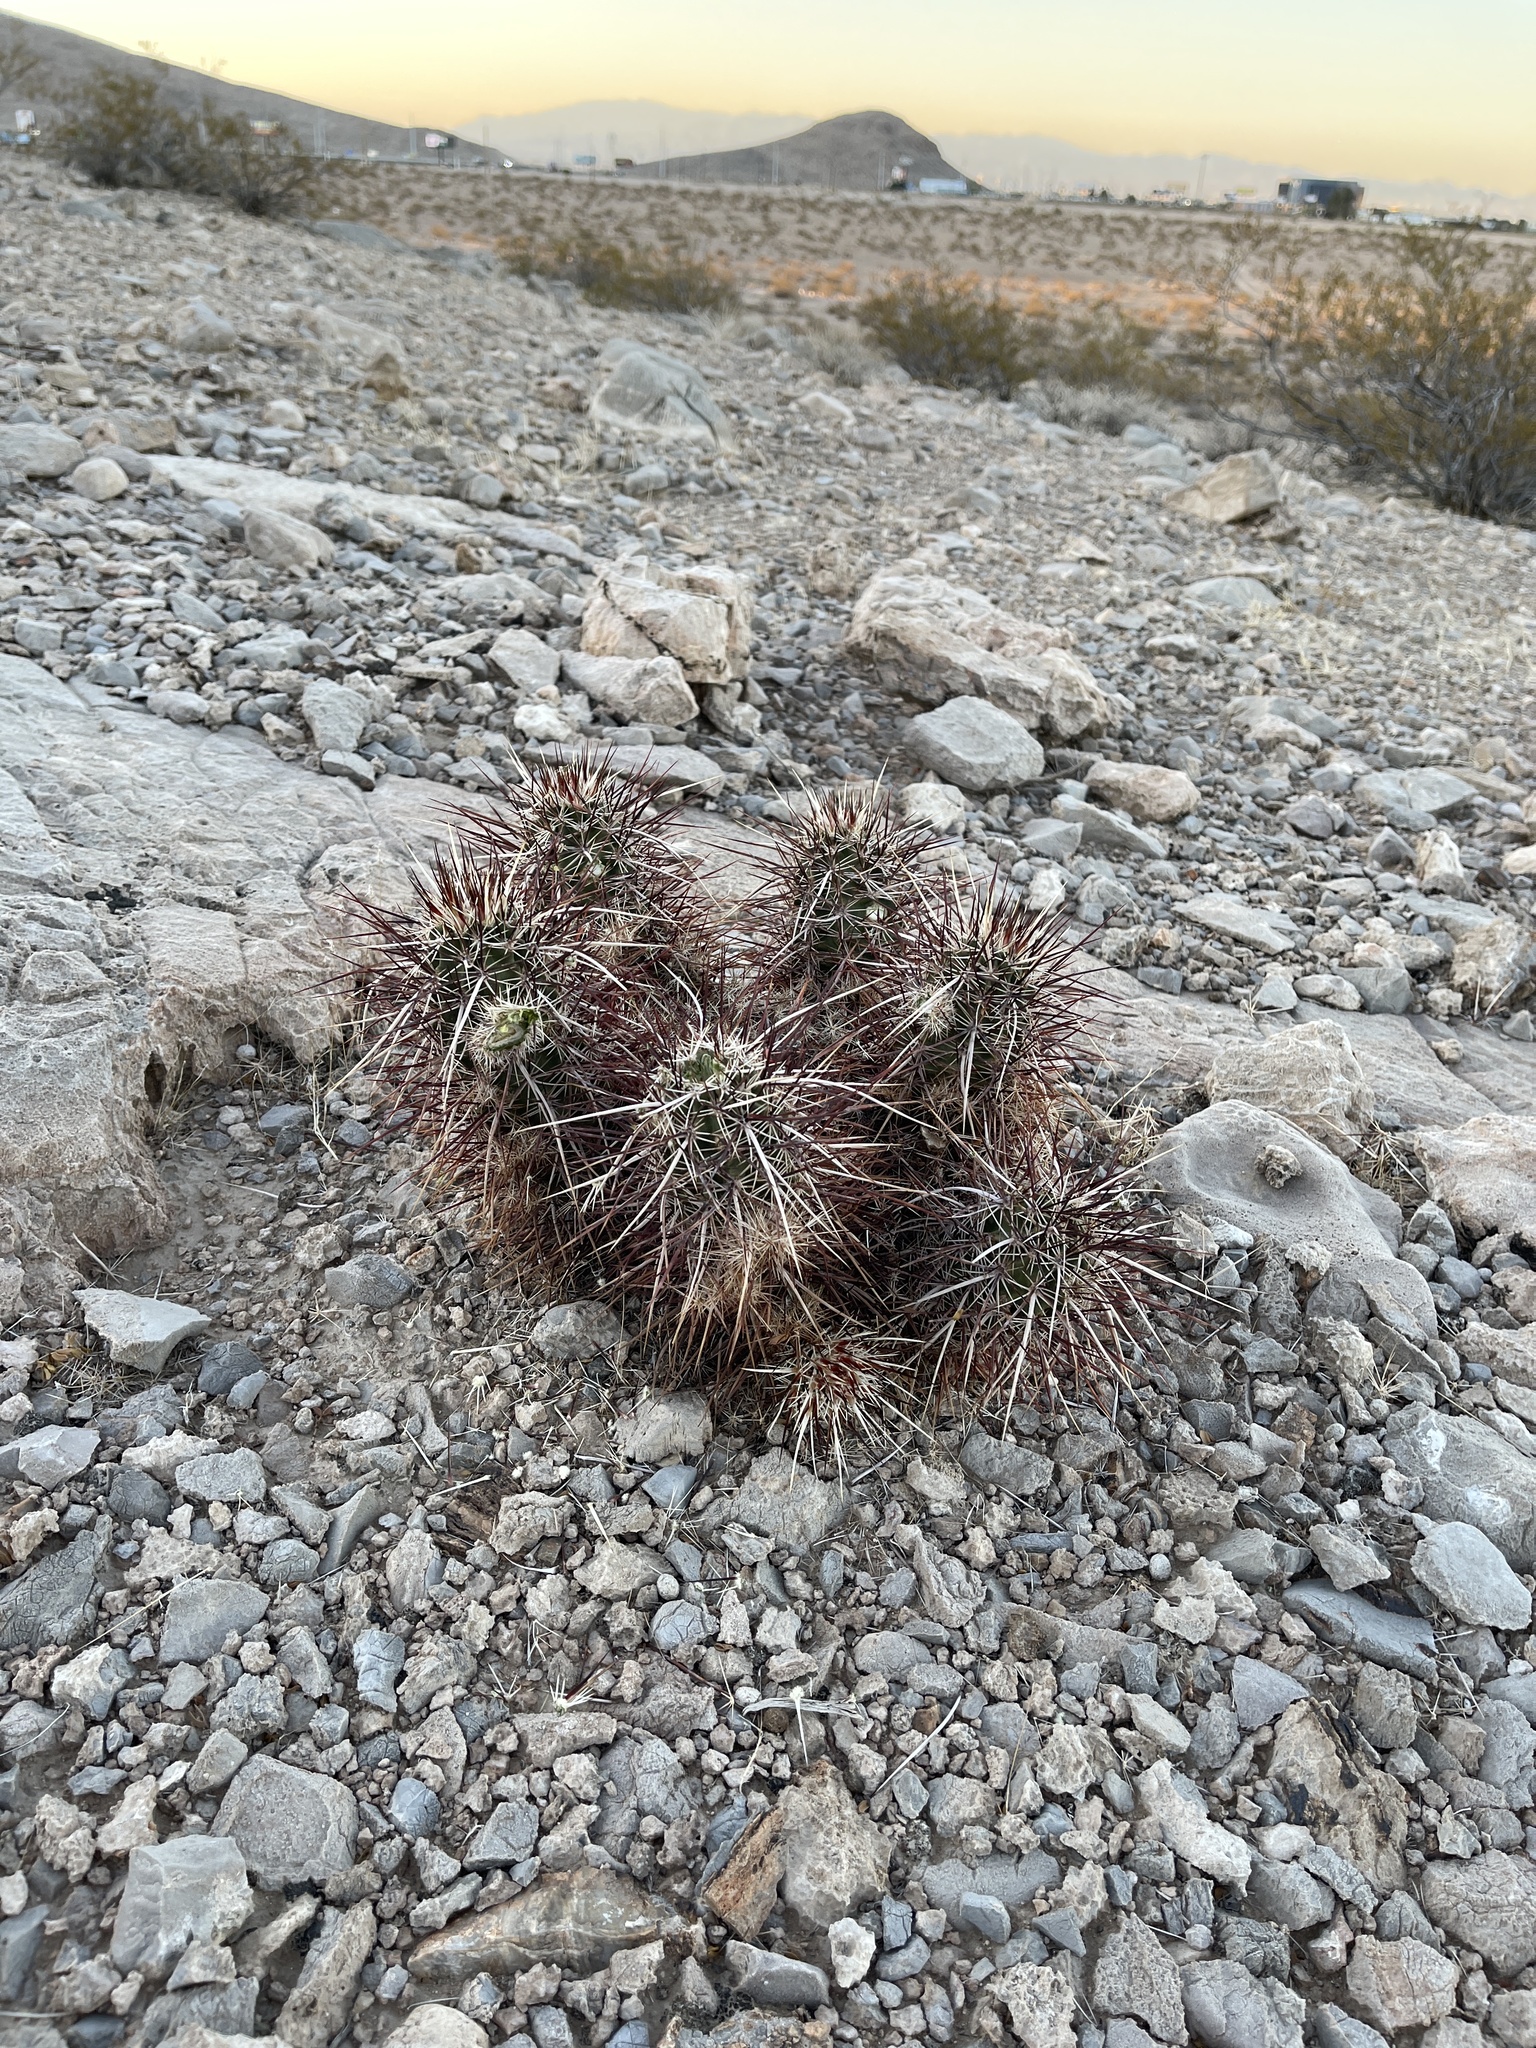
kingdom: Plantae
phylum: Tracheophyta
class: Magnoliopsida
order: Caryophyllales
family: Cactaceae
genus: Echinocereus
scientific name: Echinocereus engelmannii
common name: Engelmann's hedgehog cactus
